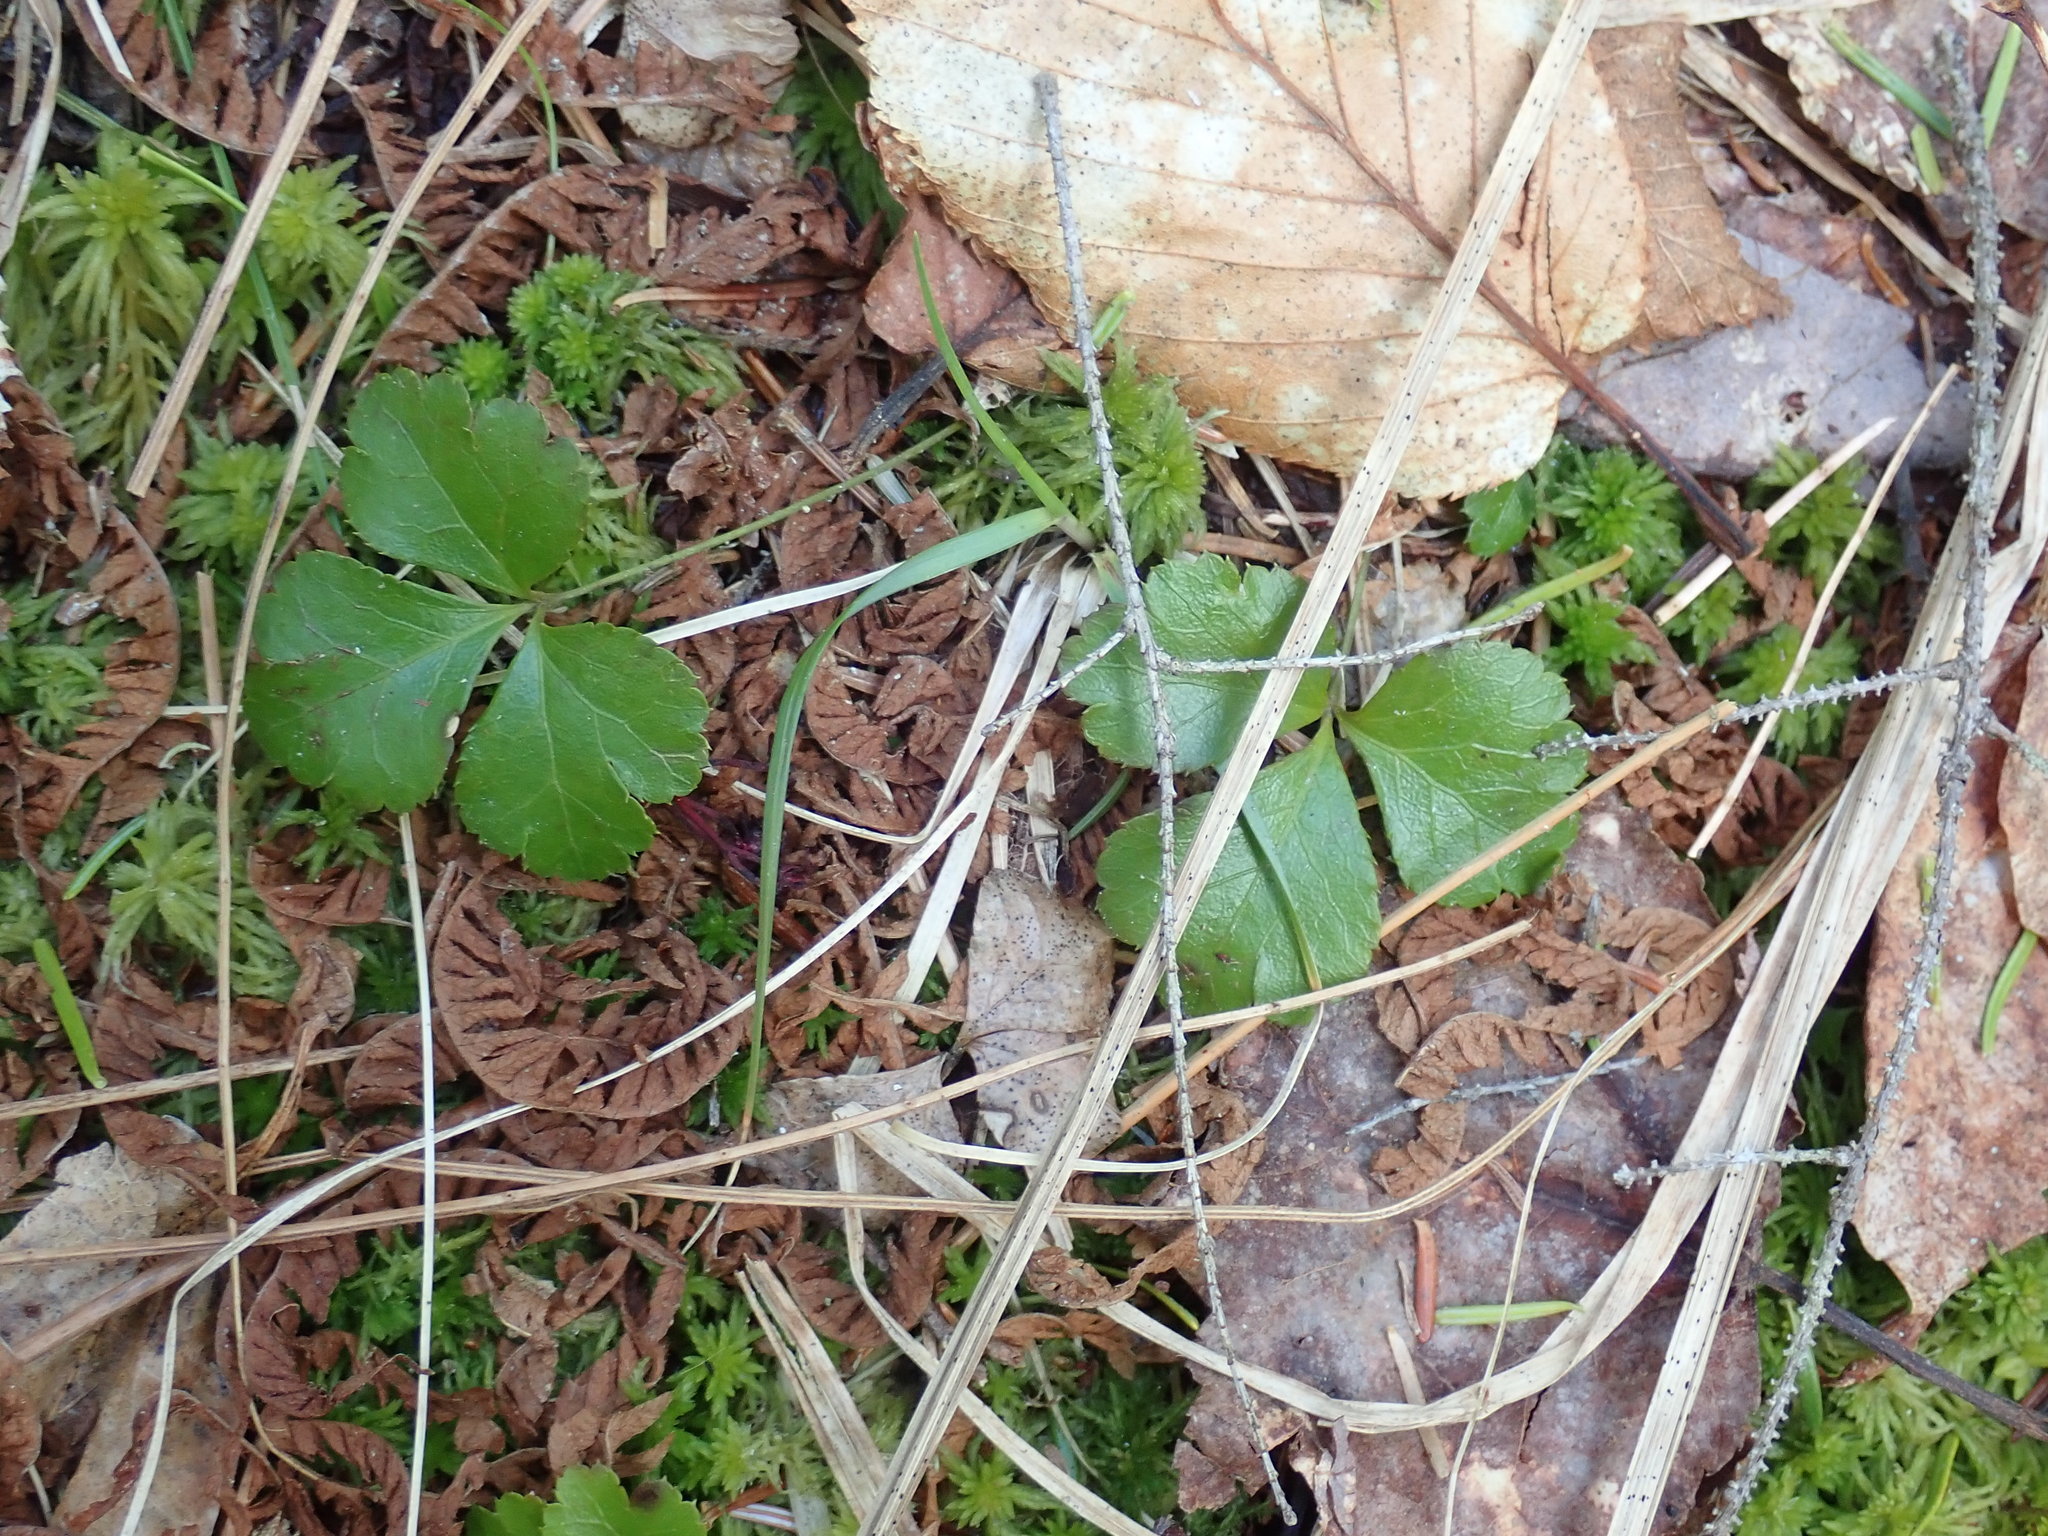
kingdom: Plantae
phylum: Tracheophyta
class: Magnoliopsida
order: Ranunculales
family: Ranunculaceae
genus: Coptis
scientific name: Coptis trifolia
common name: Canker-root
